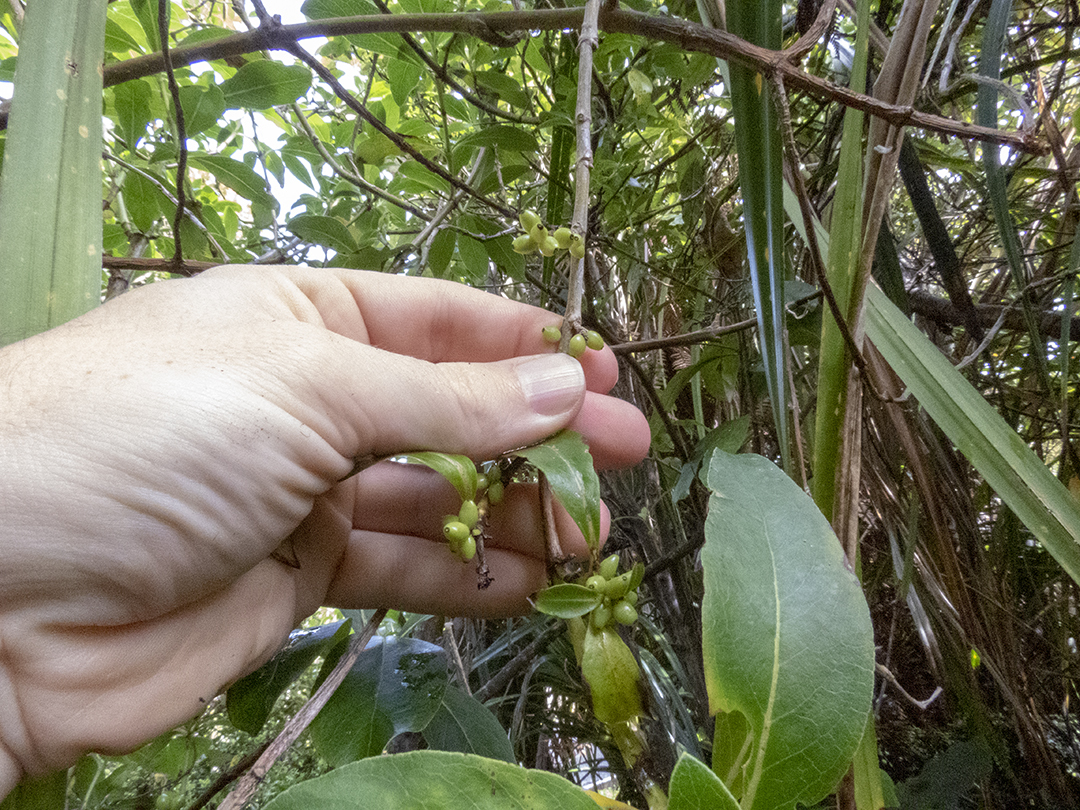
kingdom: Plantae
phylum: Tracheophyta
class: Magnoliopsida
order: Gentianales
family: Rubiaceae
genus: Coprosma
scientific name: Coprosma robusta
